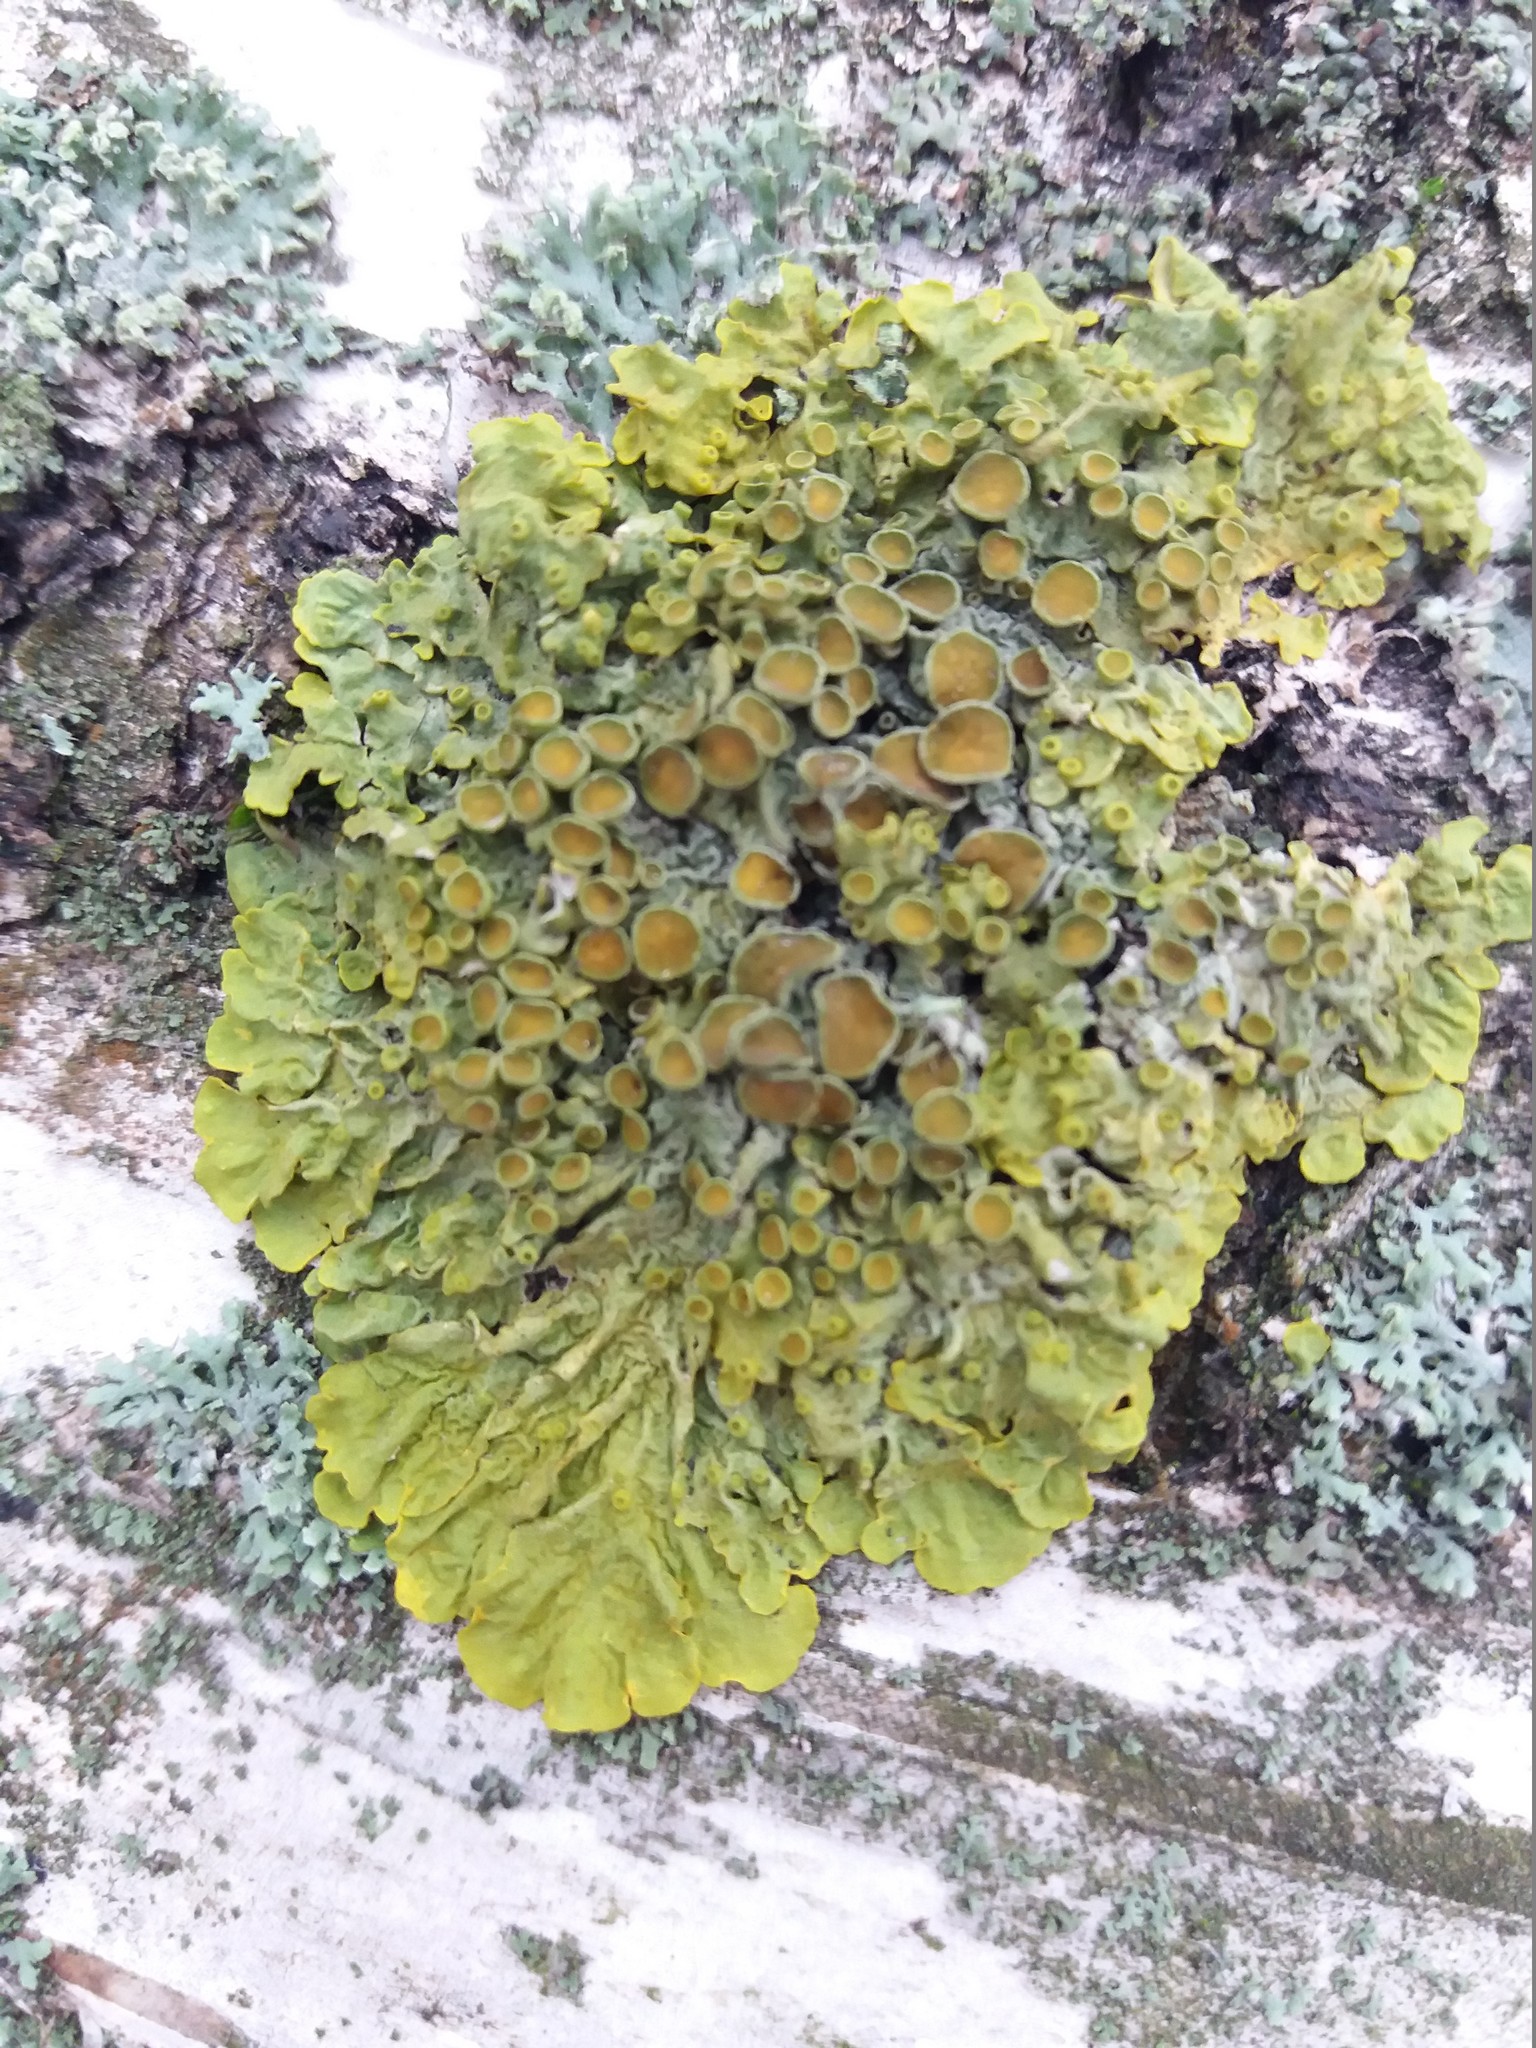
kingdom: Fungi
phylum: Ascomycota
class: Lecanoromycetes
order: Teloschistales
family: Teloschistaceae
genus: Xanthoria
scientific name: Xanthoria parietina
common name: Common orange lichen
